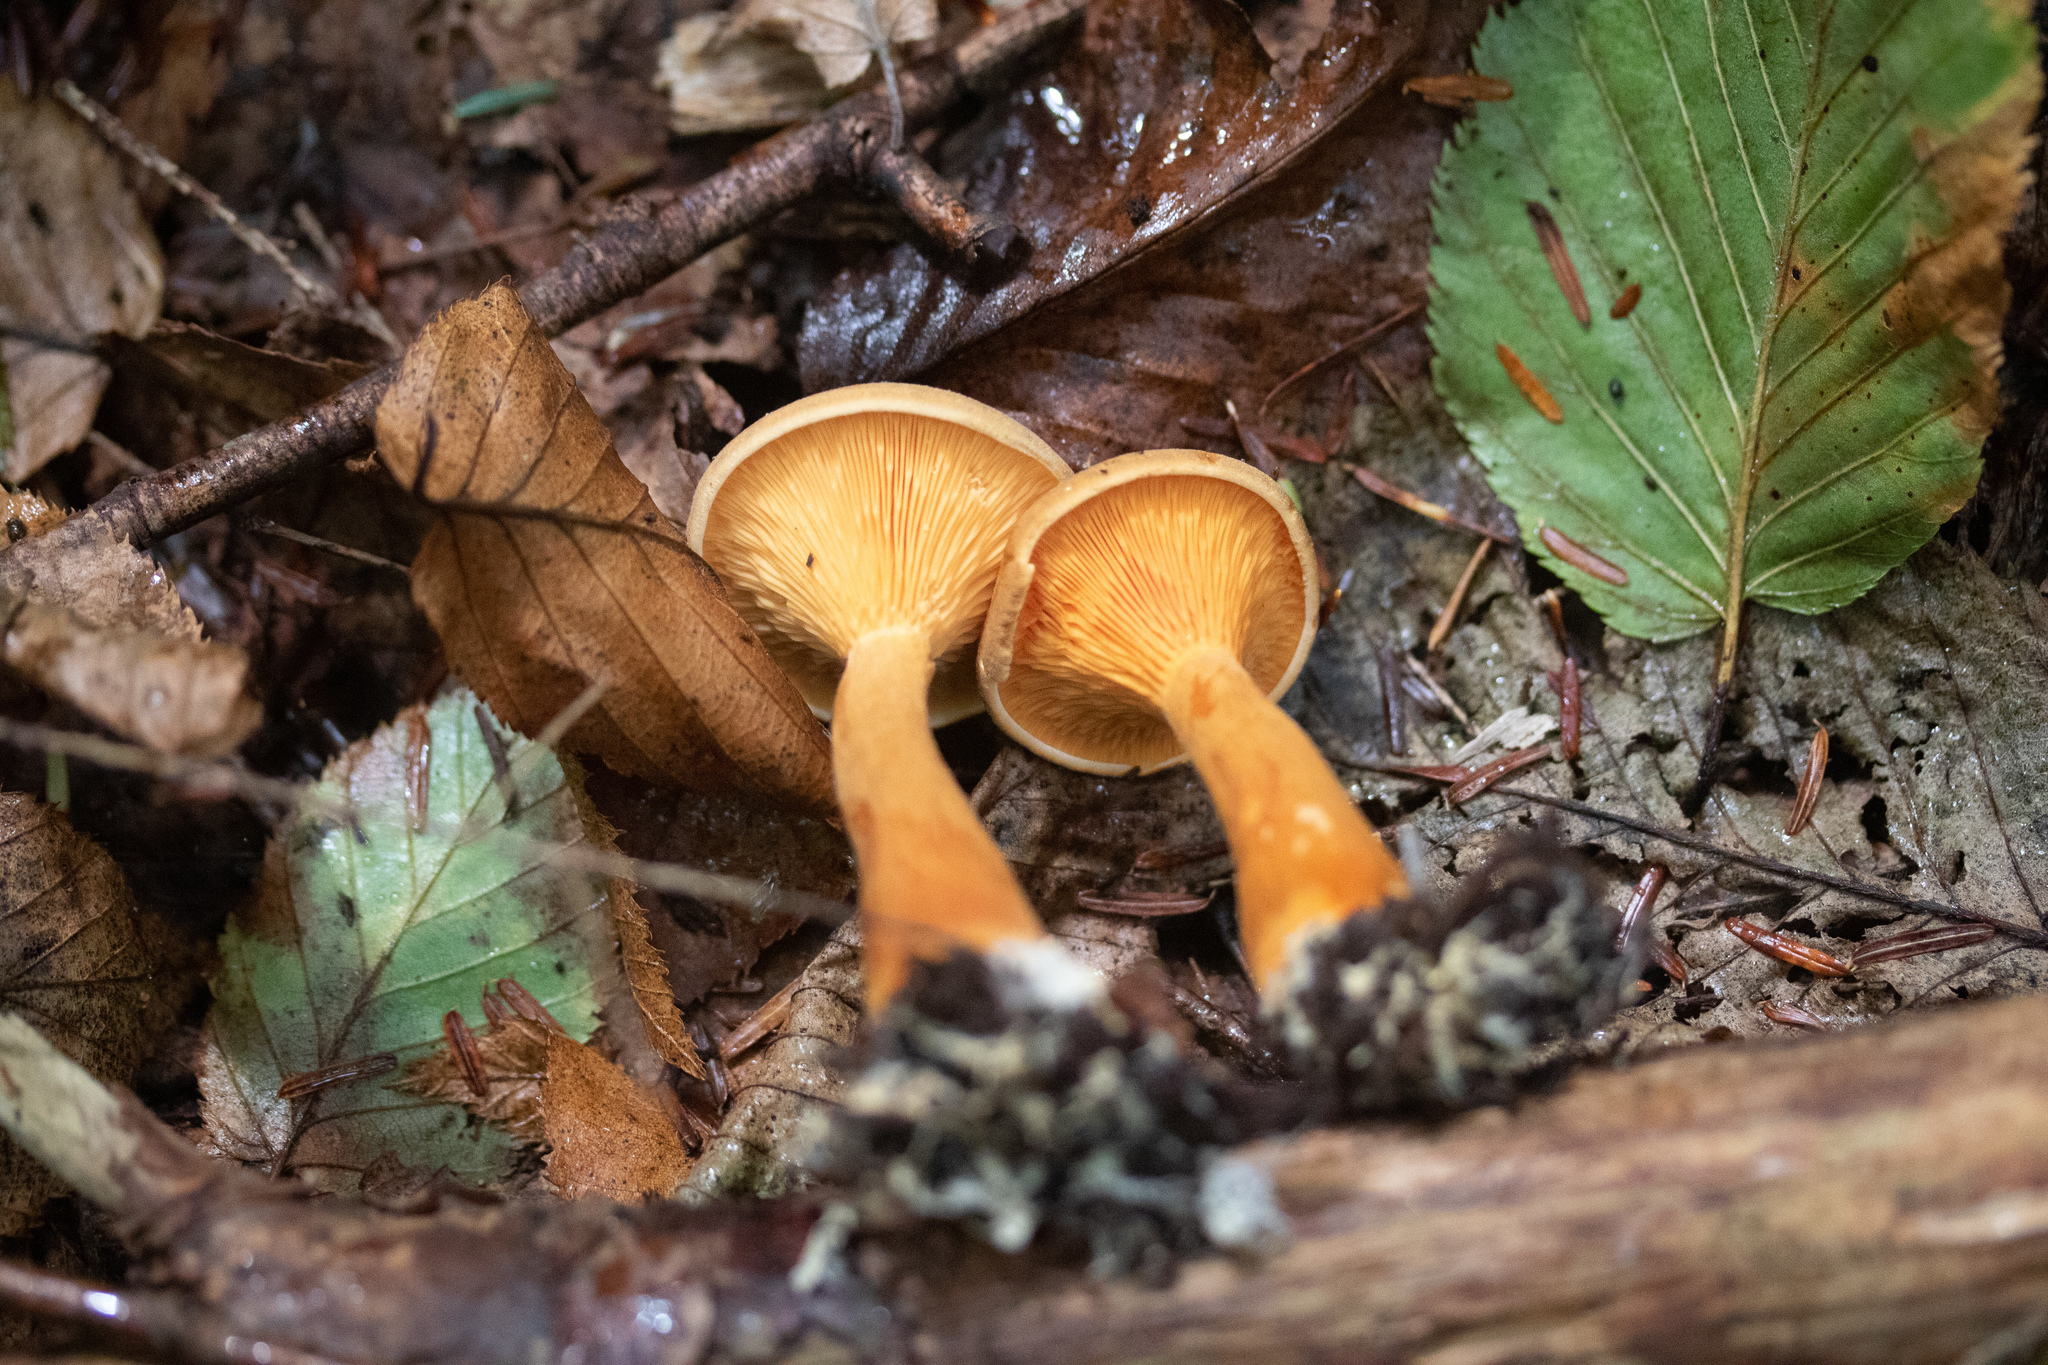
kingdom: Fungi
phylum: Basidiomycota
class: Agaricomycetes
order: Boletales
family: Hygrophoropsidaceae
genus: Hygrophoropsis
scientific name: Hygrophoropsis aurantiaca
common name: False chanterelle
